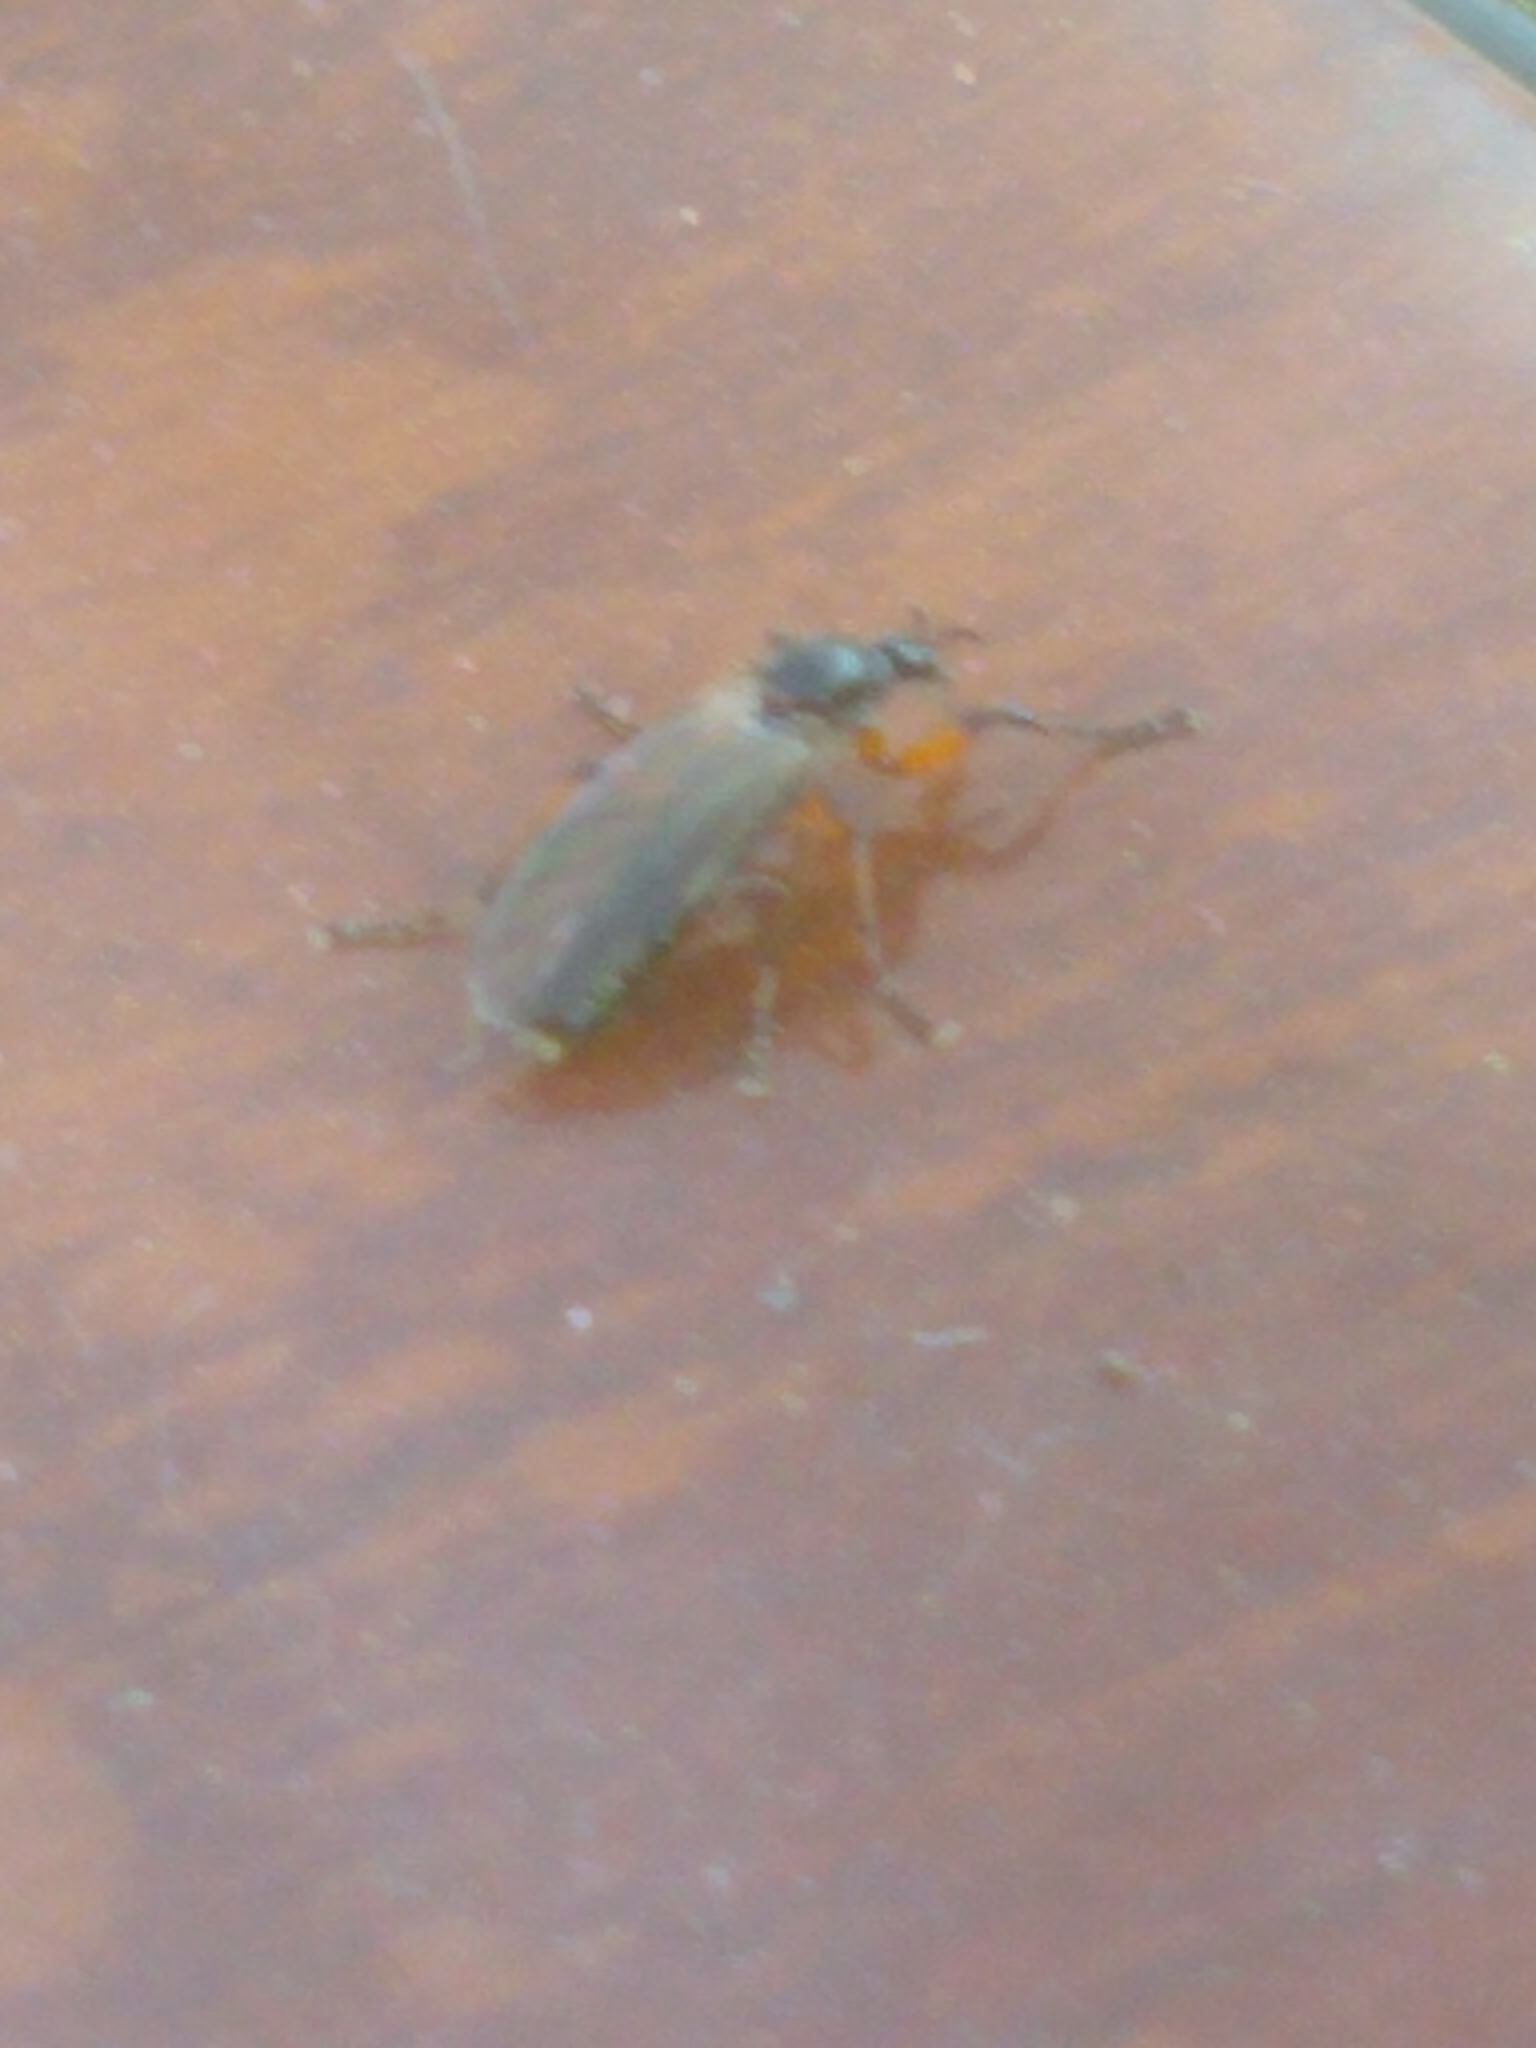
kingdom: Animalia
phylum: Arthropoda
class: Insecta
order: Diptera
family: Bibionidae
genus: Bibio
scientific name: Bibio
